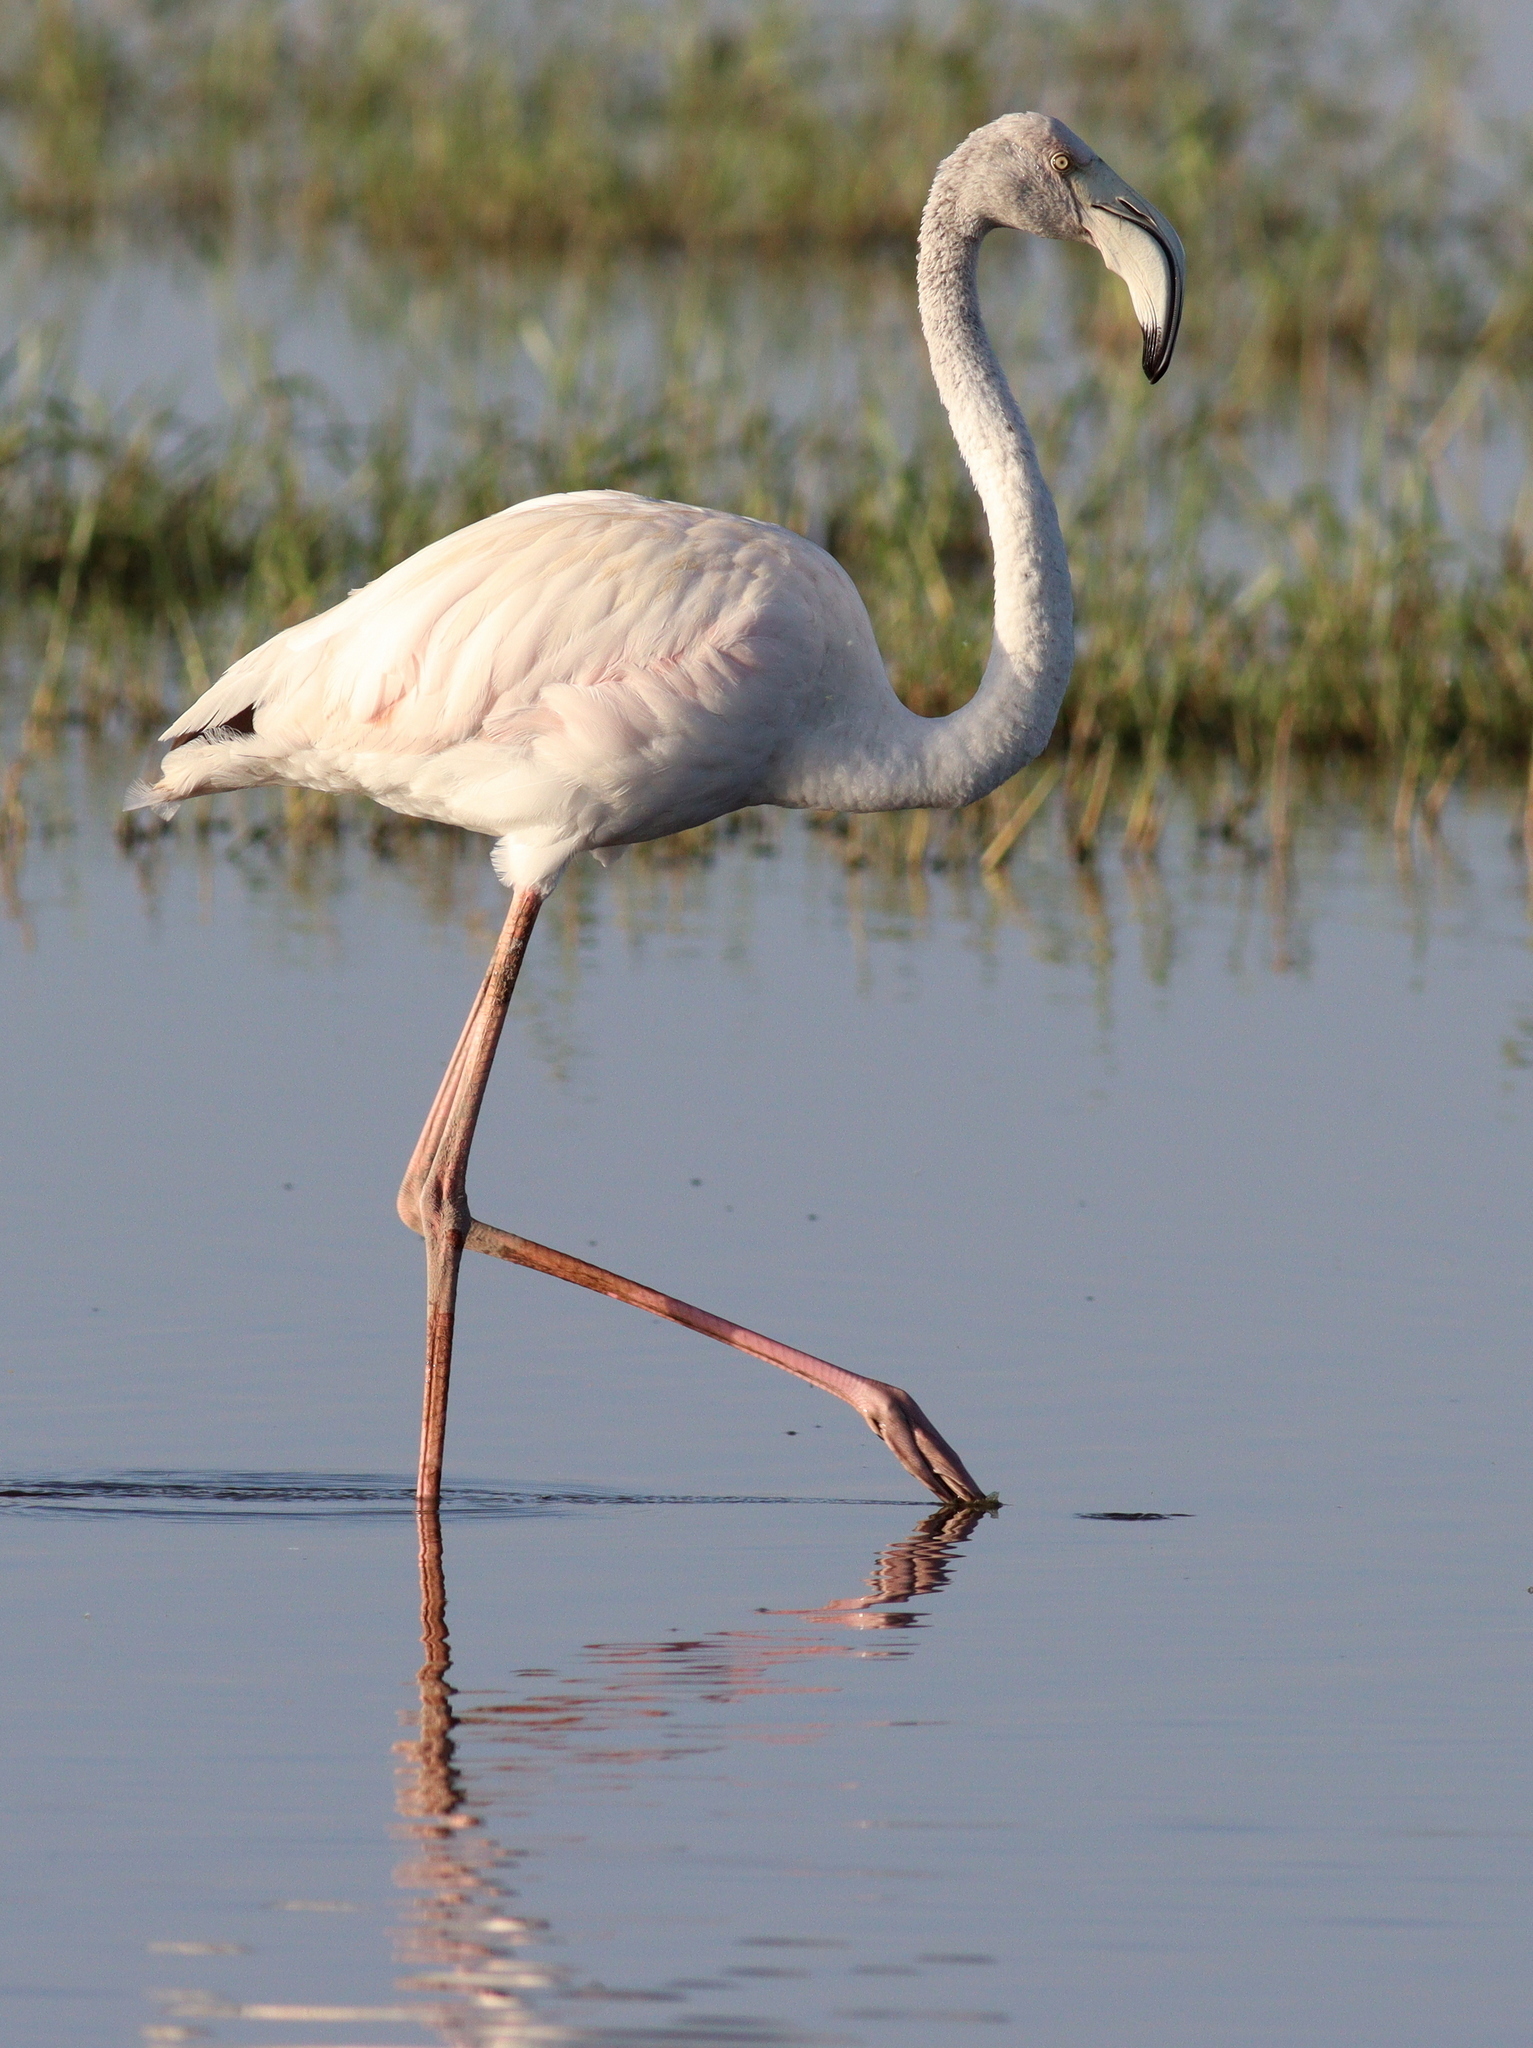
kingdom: Animalia
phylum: Chordata
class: Aves
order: Phoenicopteriformes
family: Phoenicopteridae
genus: Phoenicopterus
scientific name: Phoenicopterus roseus
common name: Greater flamingo
